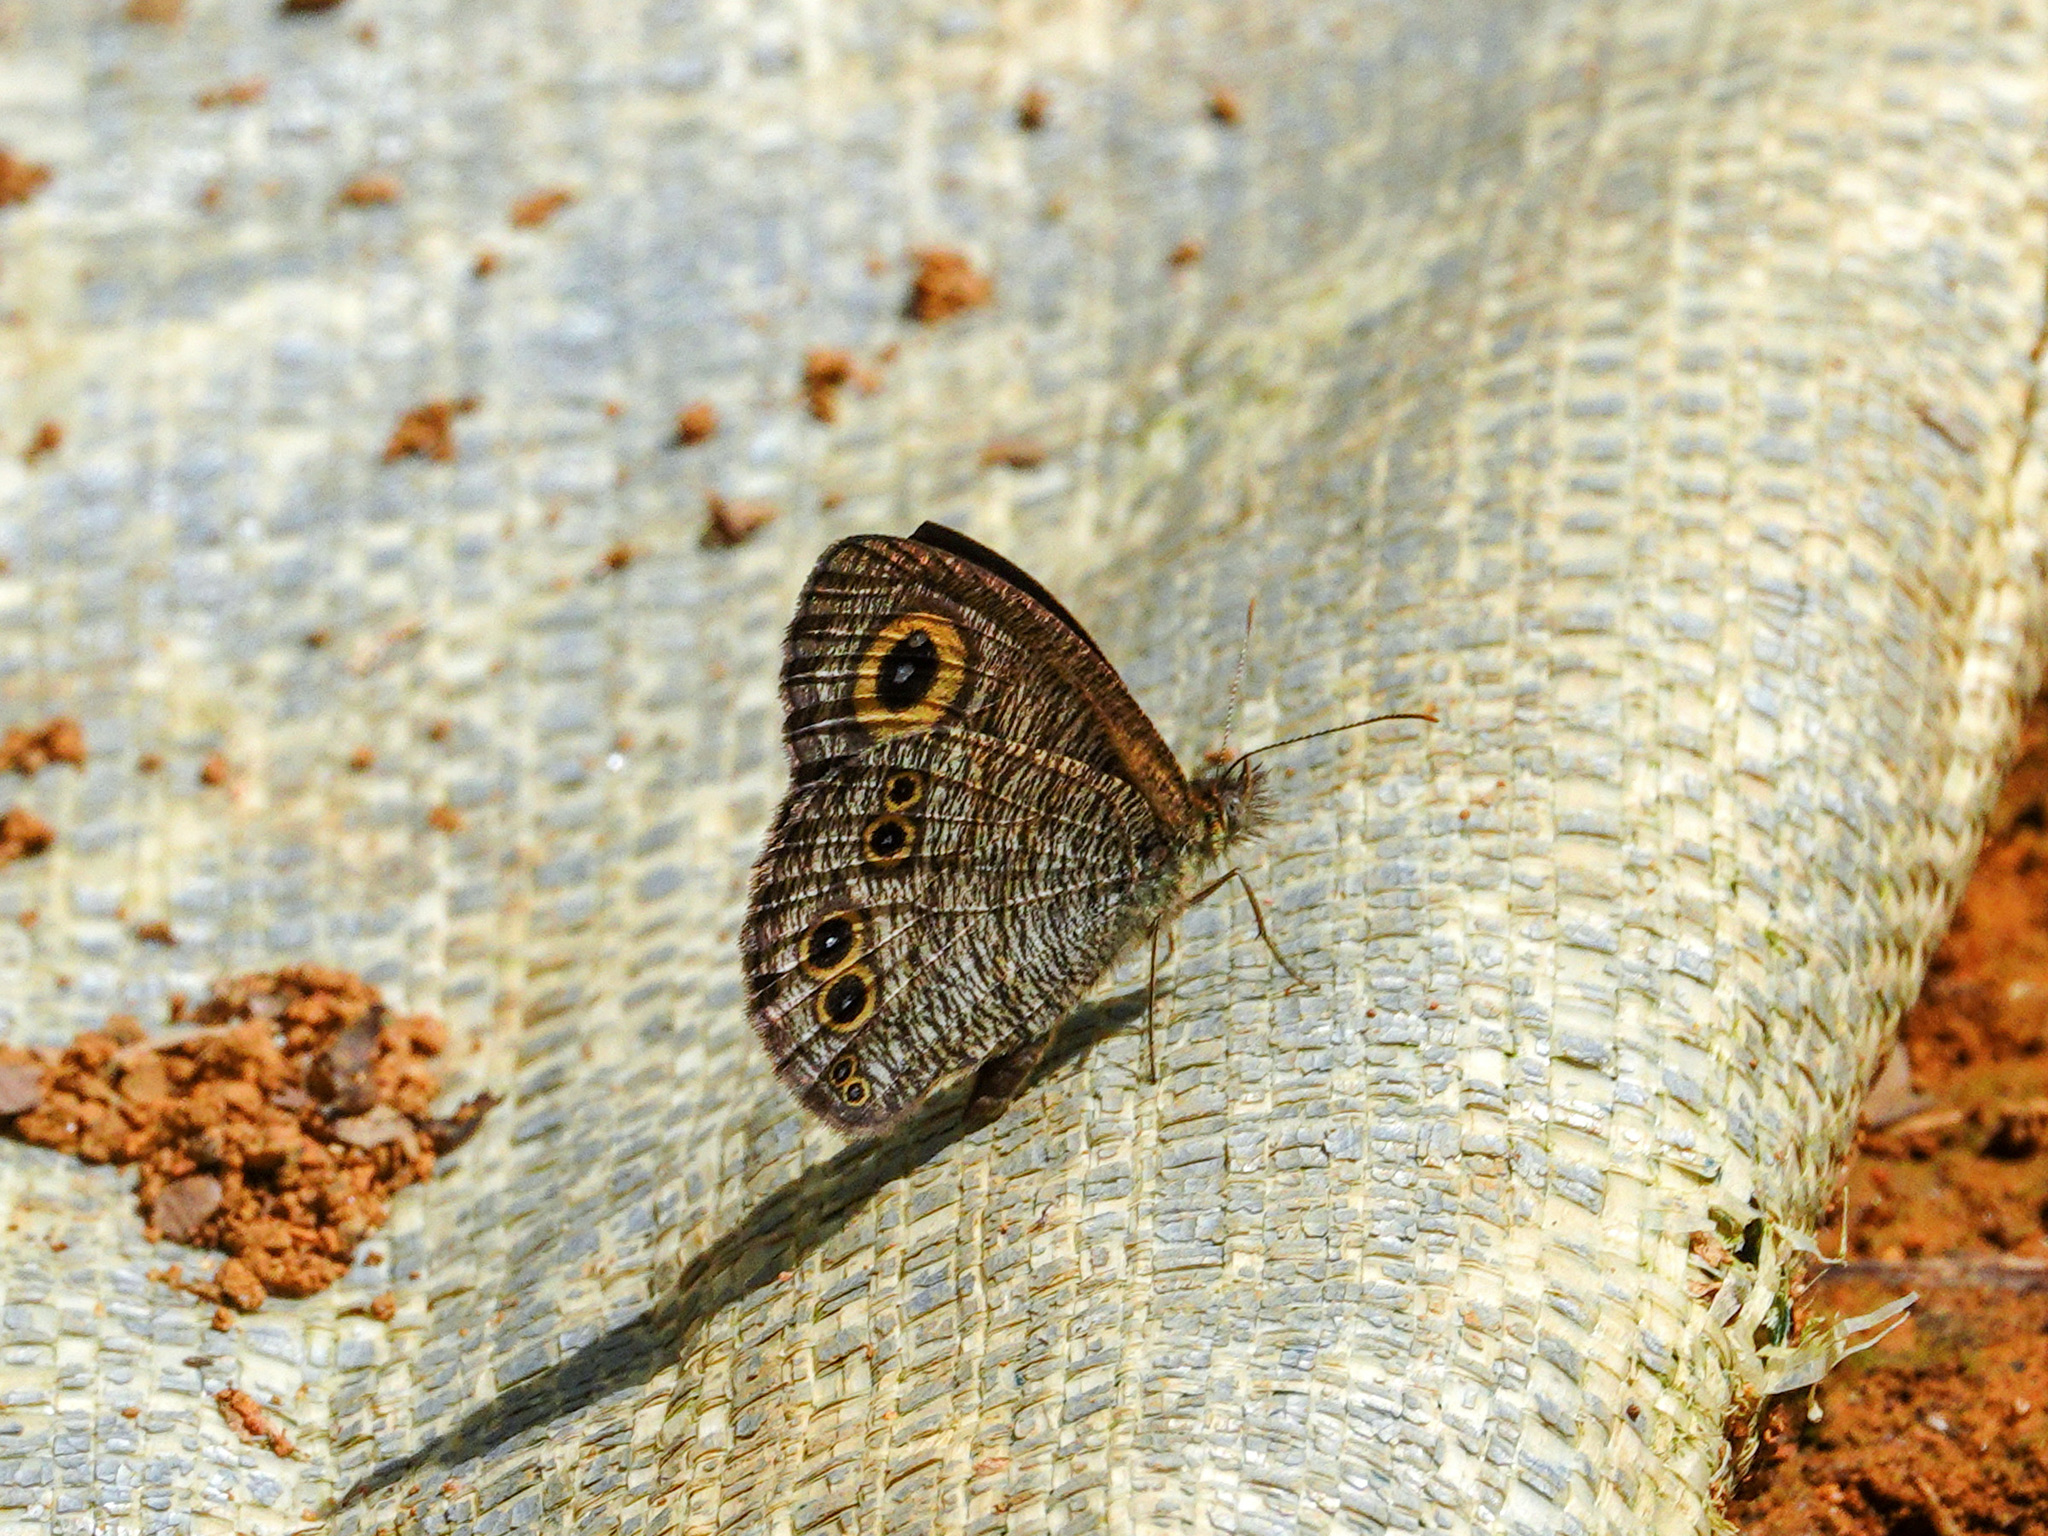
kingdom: Animalia
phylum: Arthropoda
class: Insecta
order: Lepidoptera
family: Nymphalidae
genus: Ypthima
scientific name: Ypthima baldus
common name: Common five-ring
